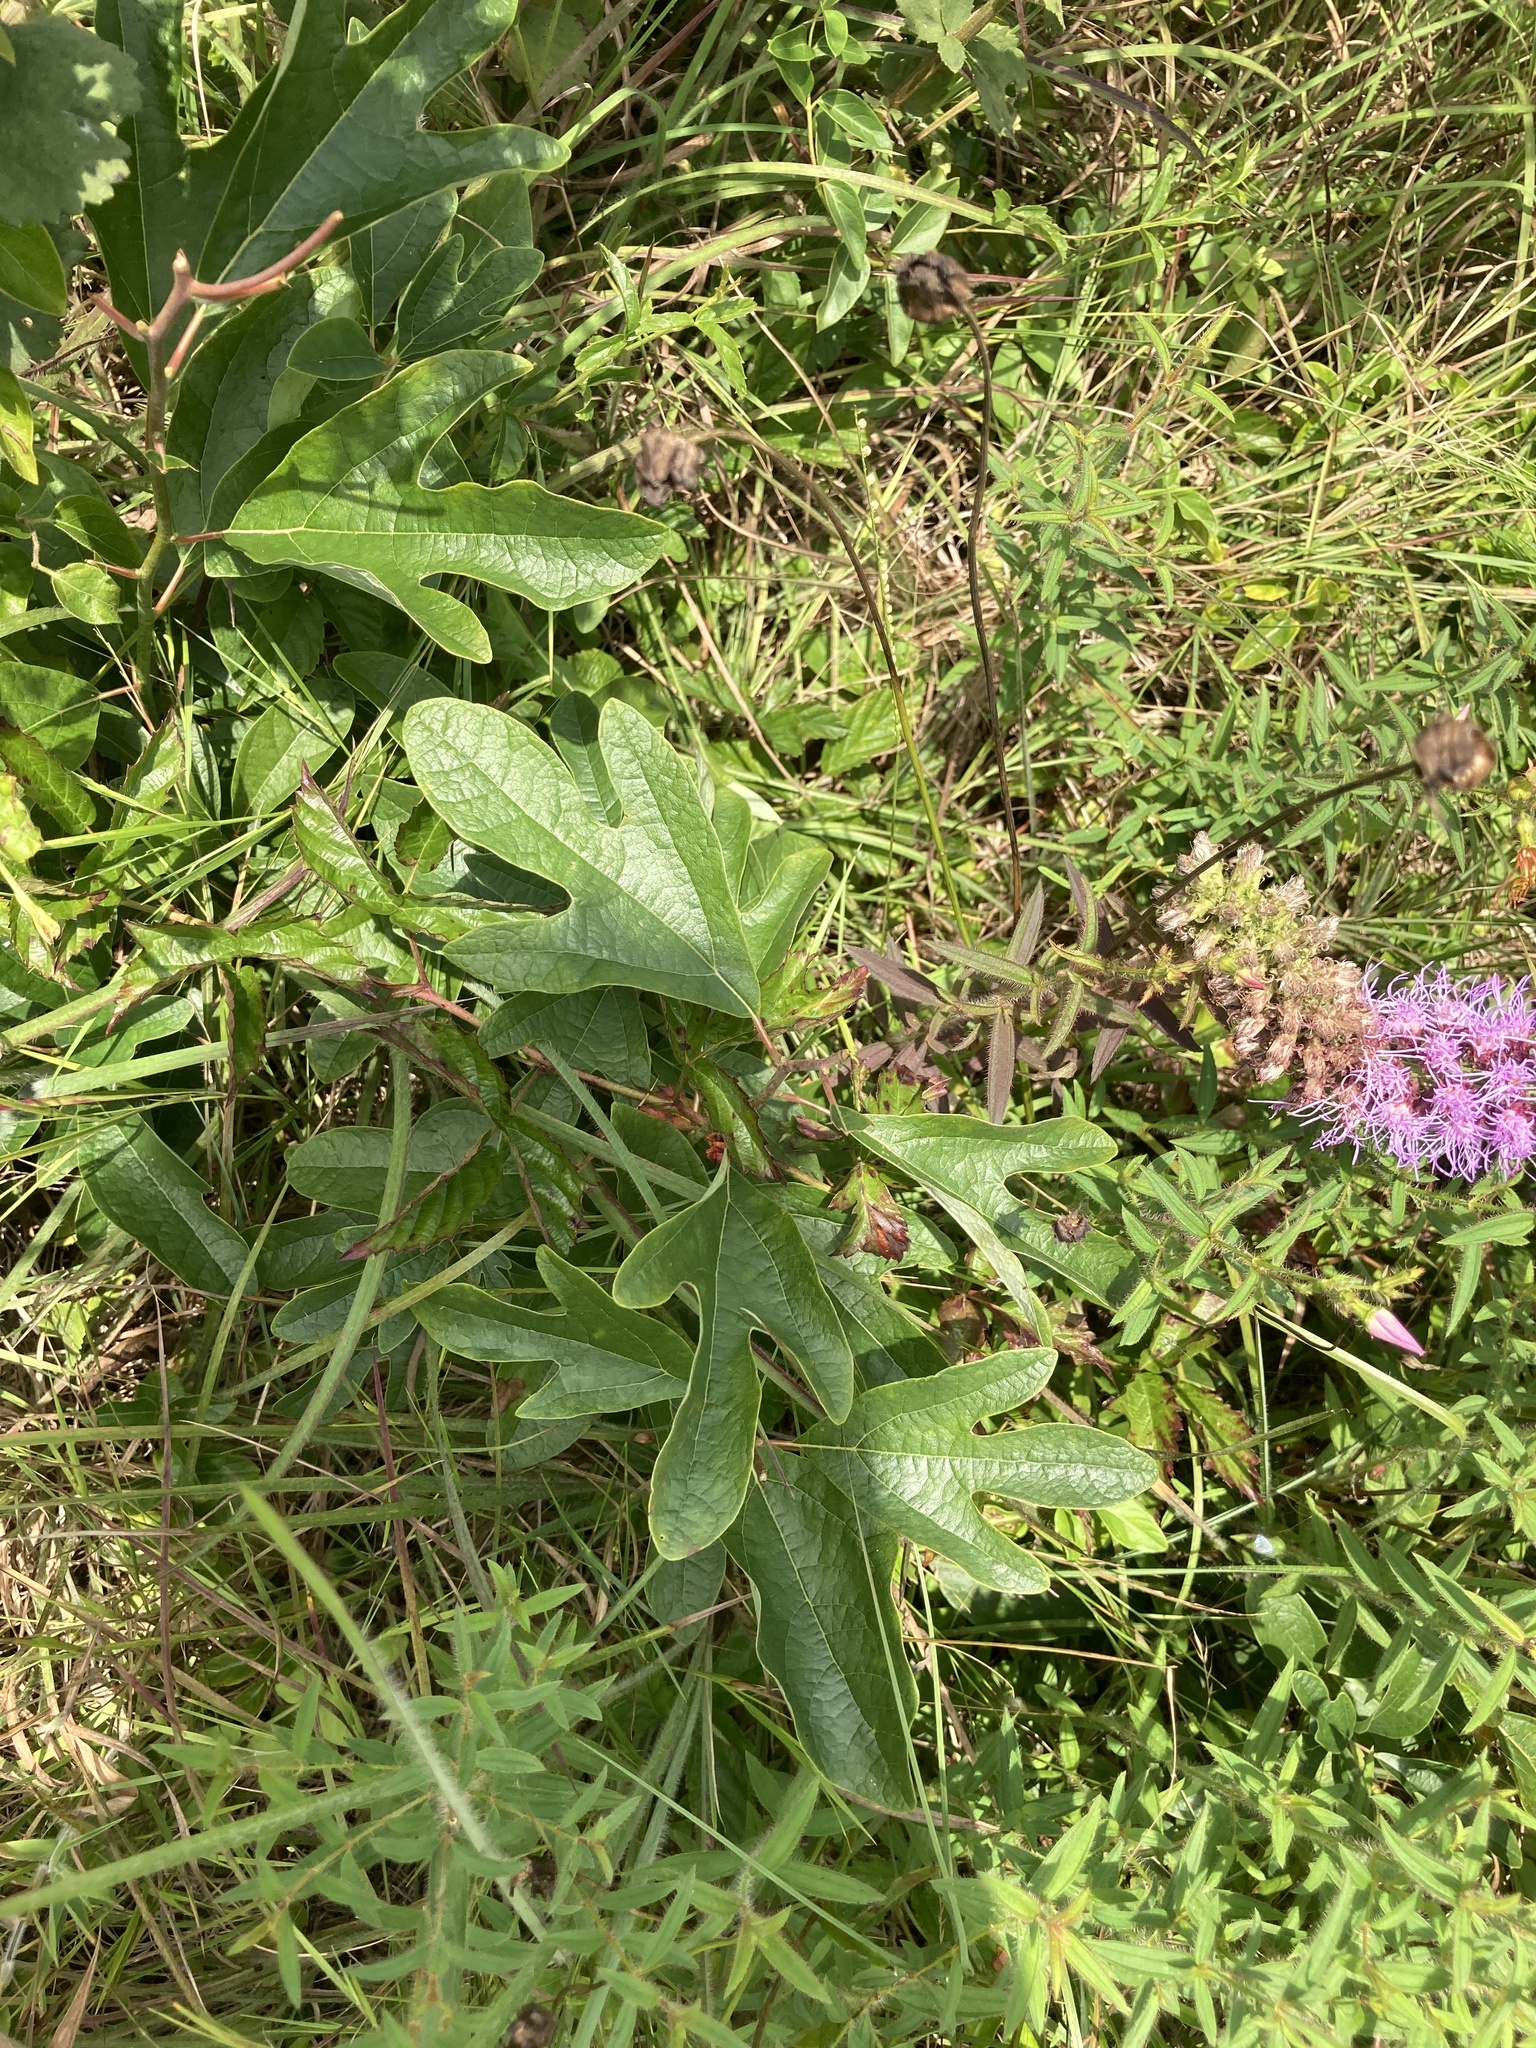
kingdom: Plantae
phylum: Tracheophyta
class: Magnoliopsida
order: Laurales
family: Lauraceae
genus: Sassafras
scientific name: Sassafras albidum
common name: Sassafras
